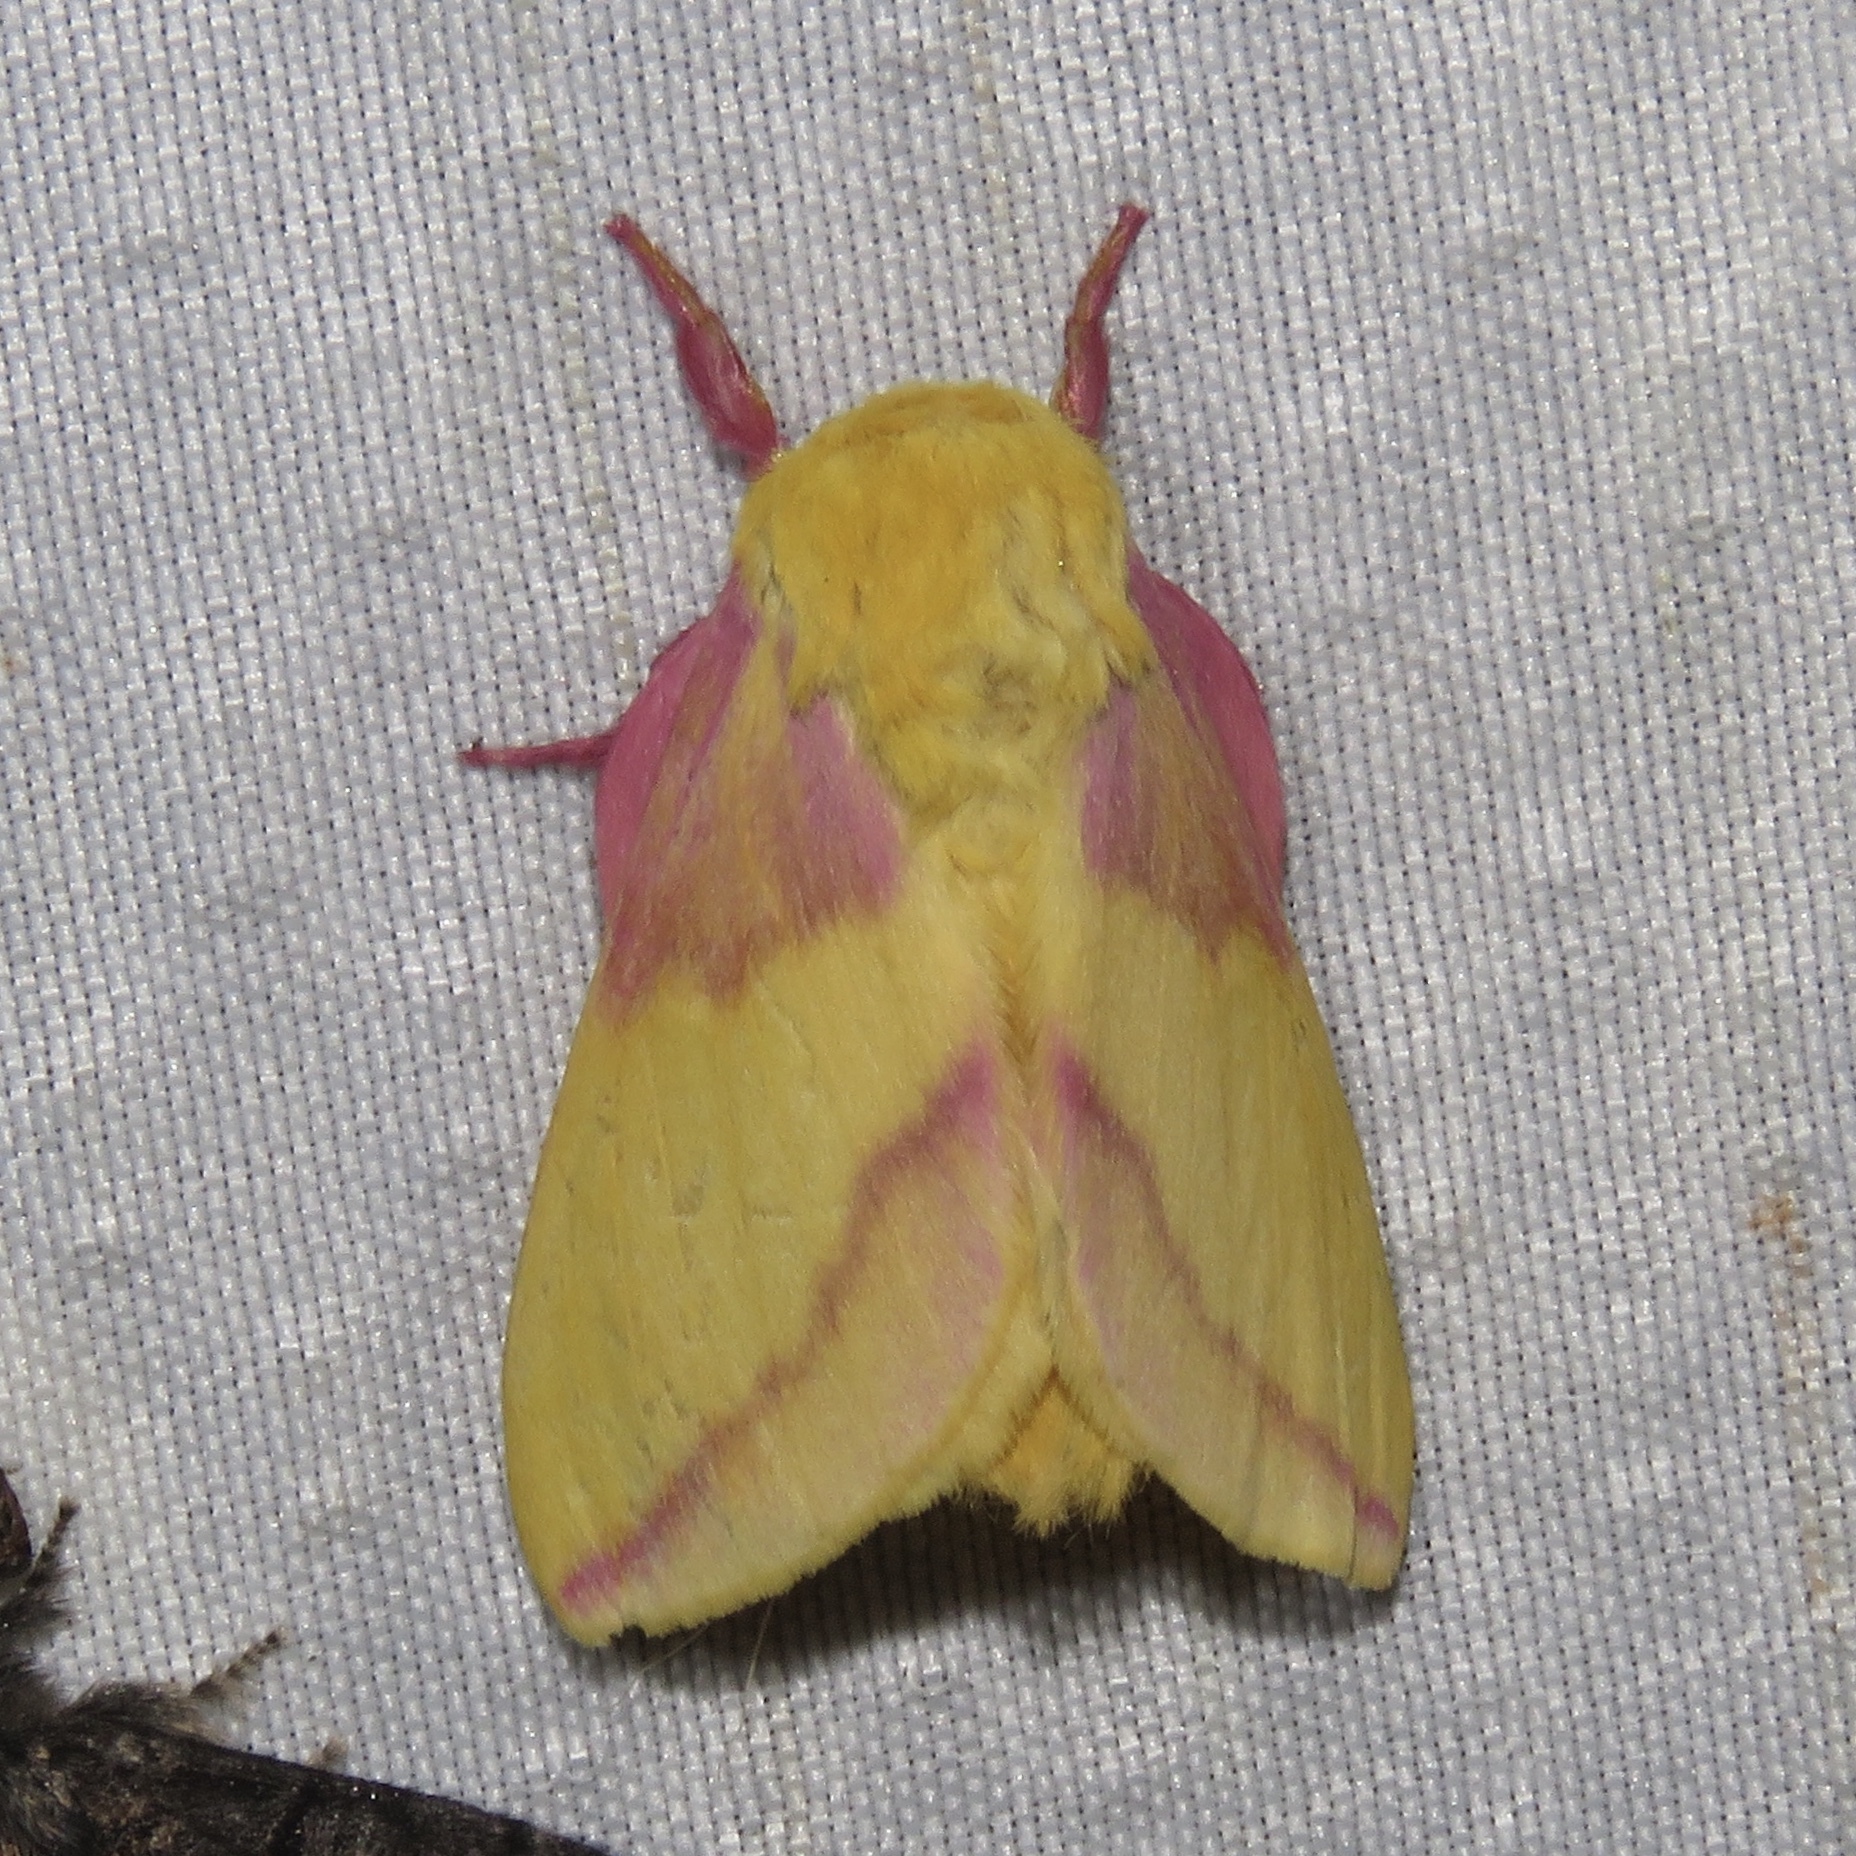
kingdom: Animalia
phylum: Arthropoda
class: Insecta
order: Lepidoptera
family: Saturniidae
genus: Dryocampa
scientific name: Dryocampa rubicunda
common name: Rosy maple moth
